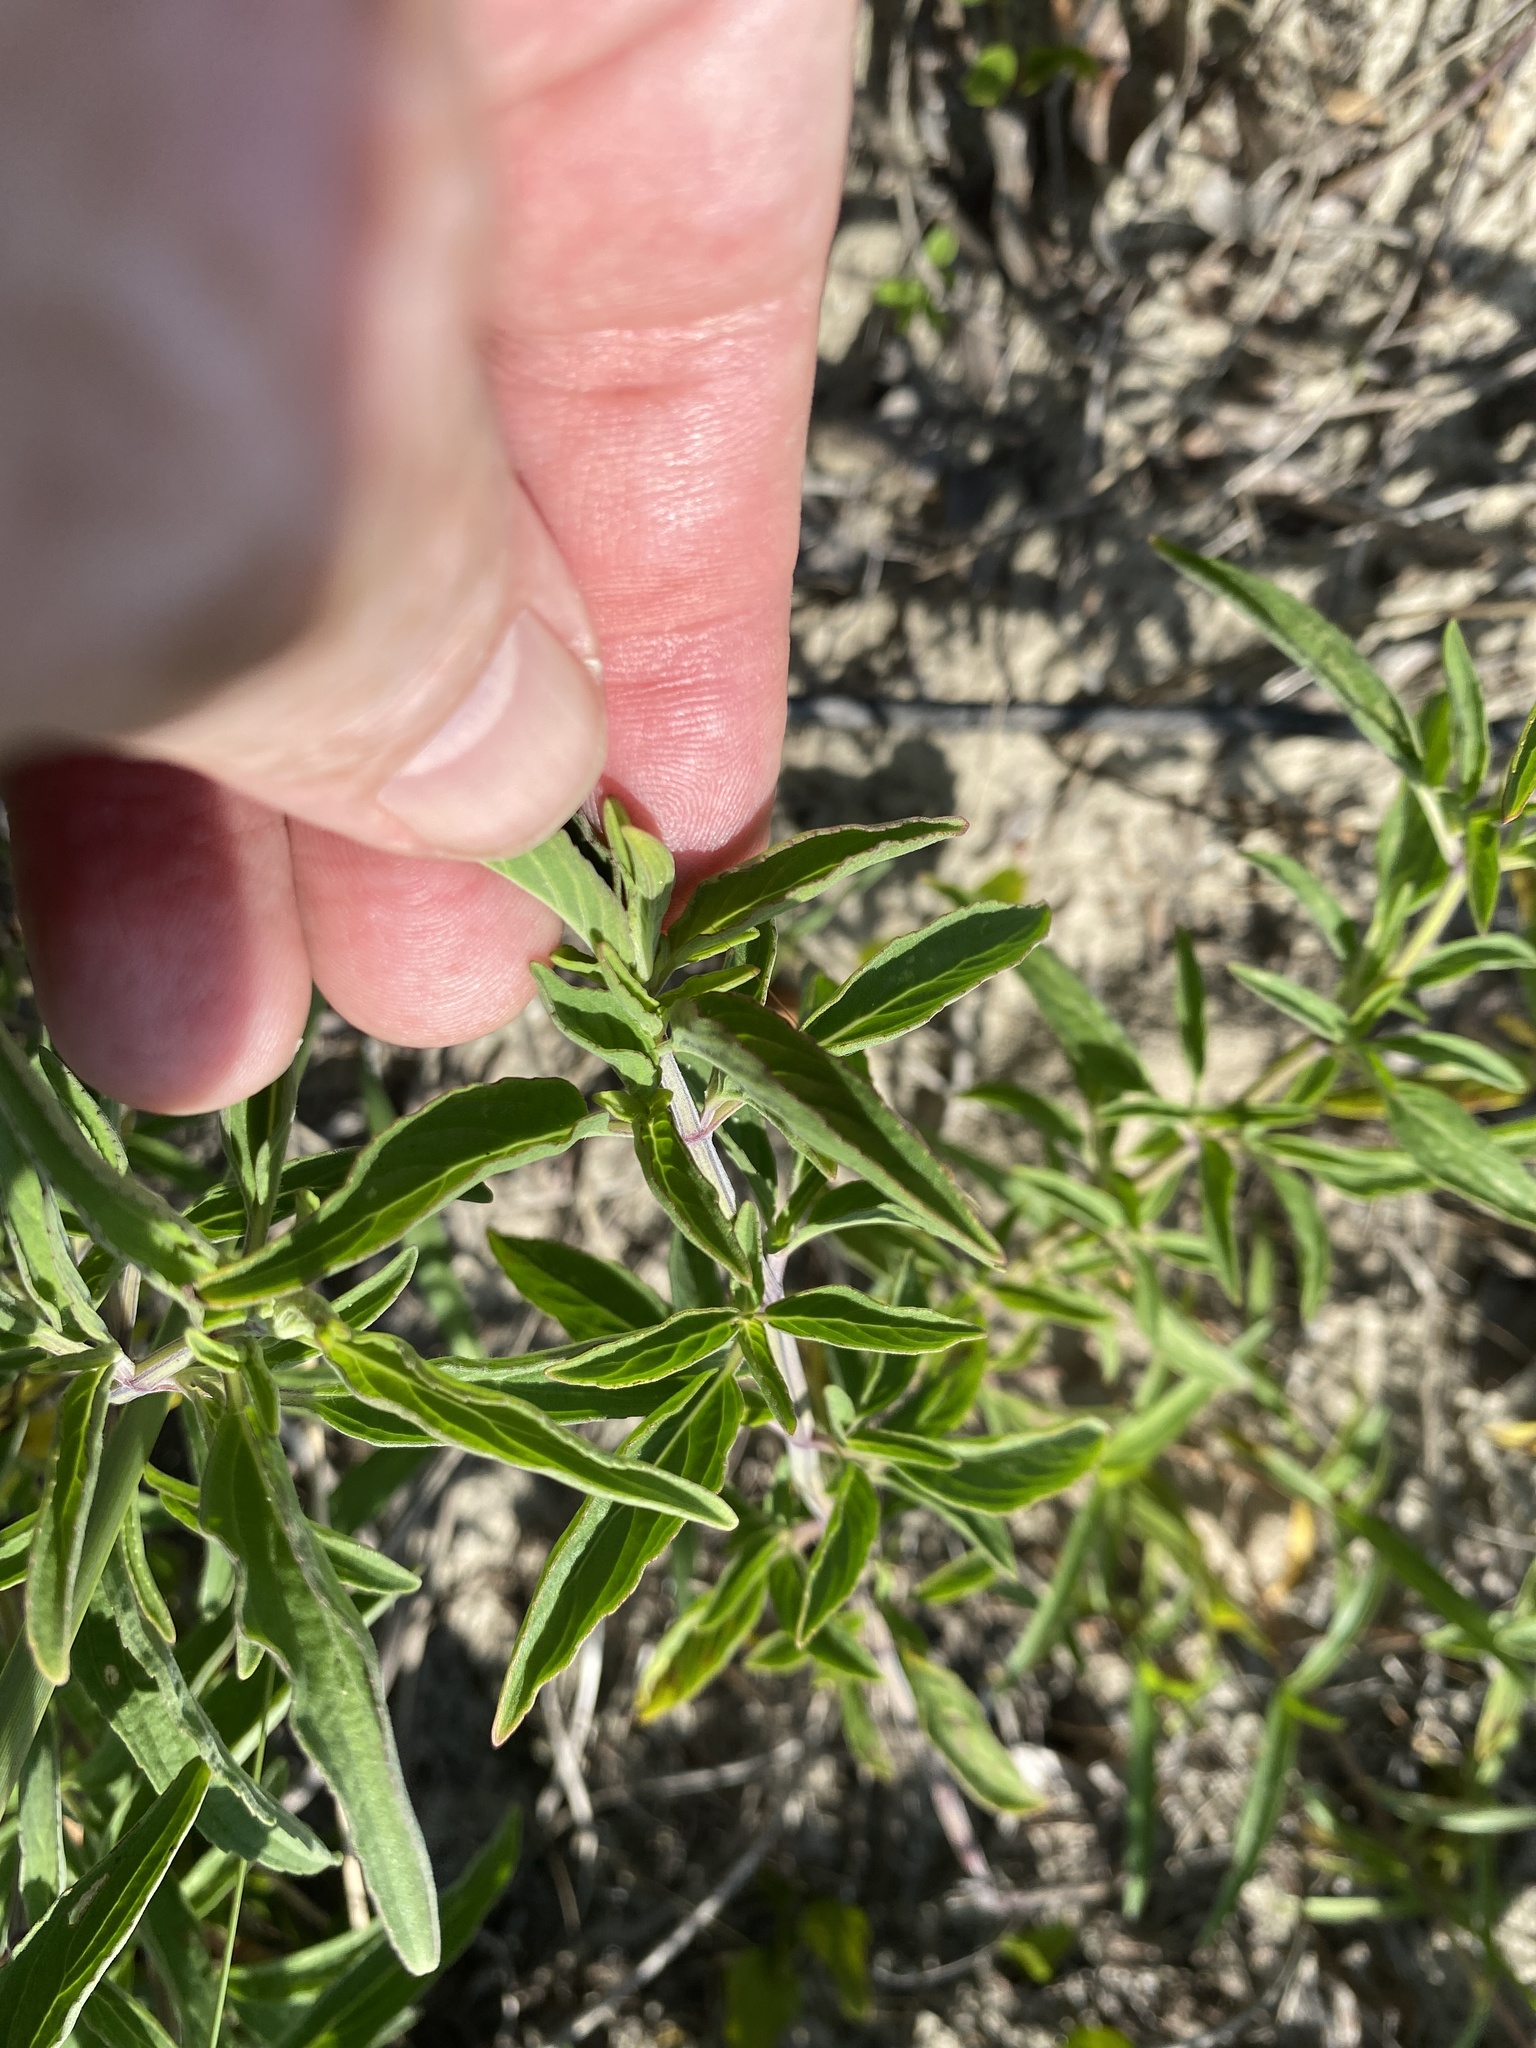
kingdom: Plantae
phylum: Tracheophyta
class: Magnoliopsida
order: Lamiales
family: Lamiaceae
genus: Monarda
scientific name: Monarda punctata
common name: Dotted monarda
